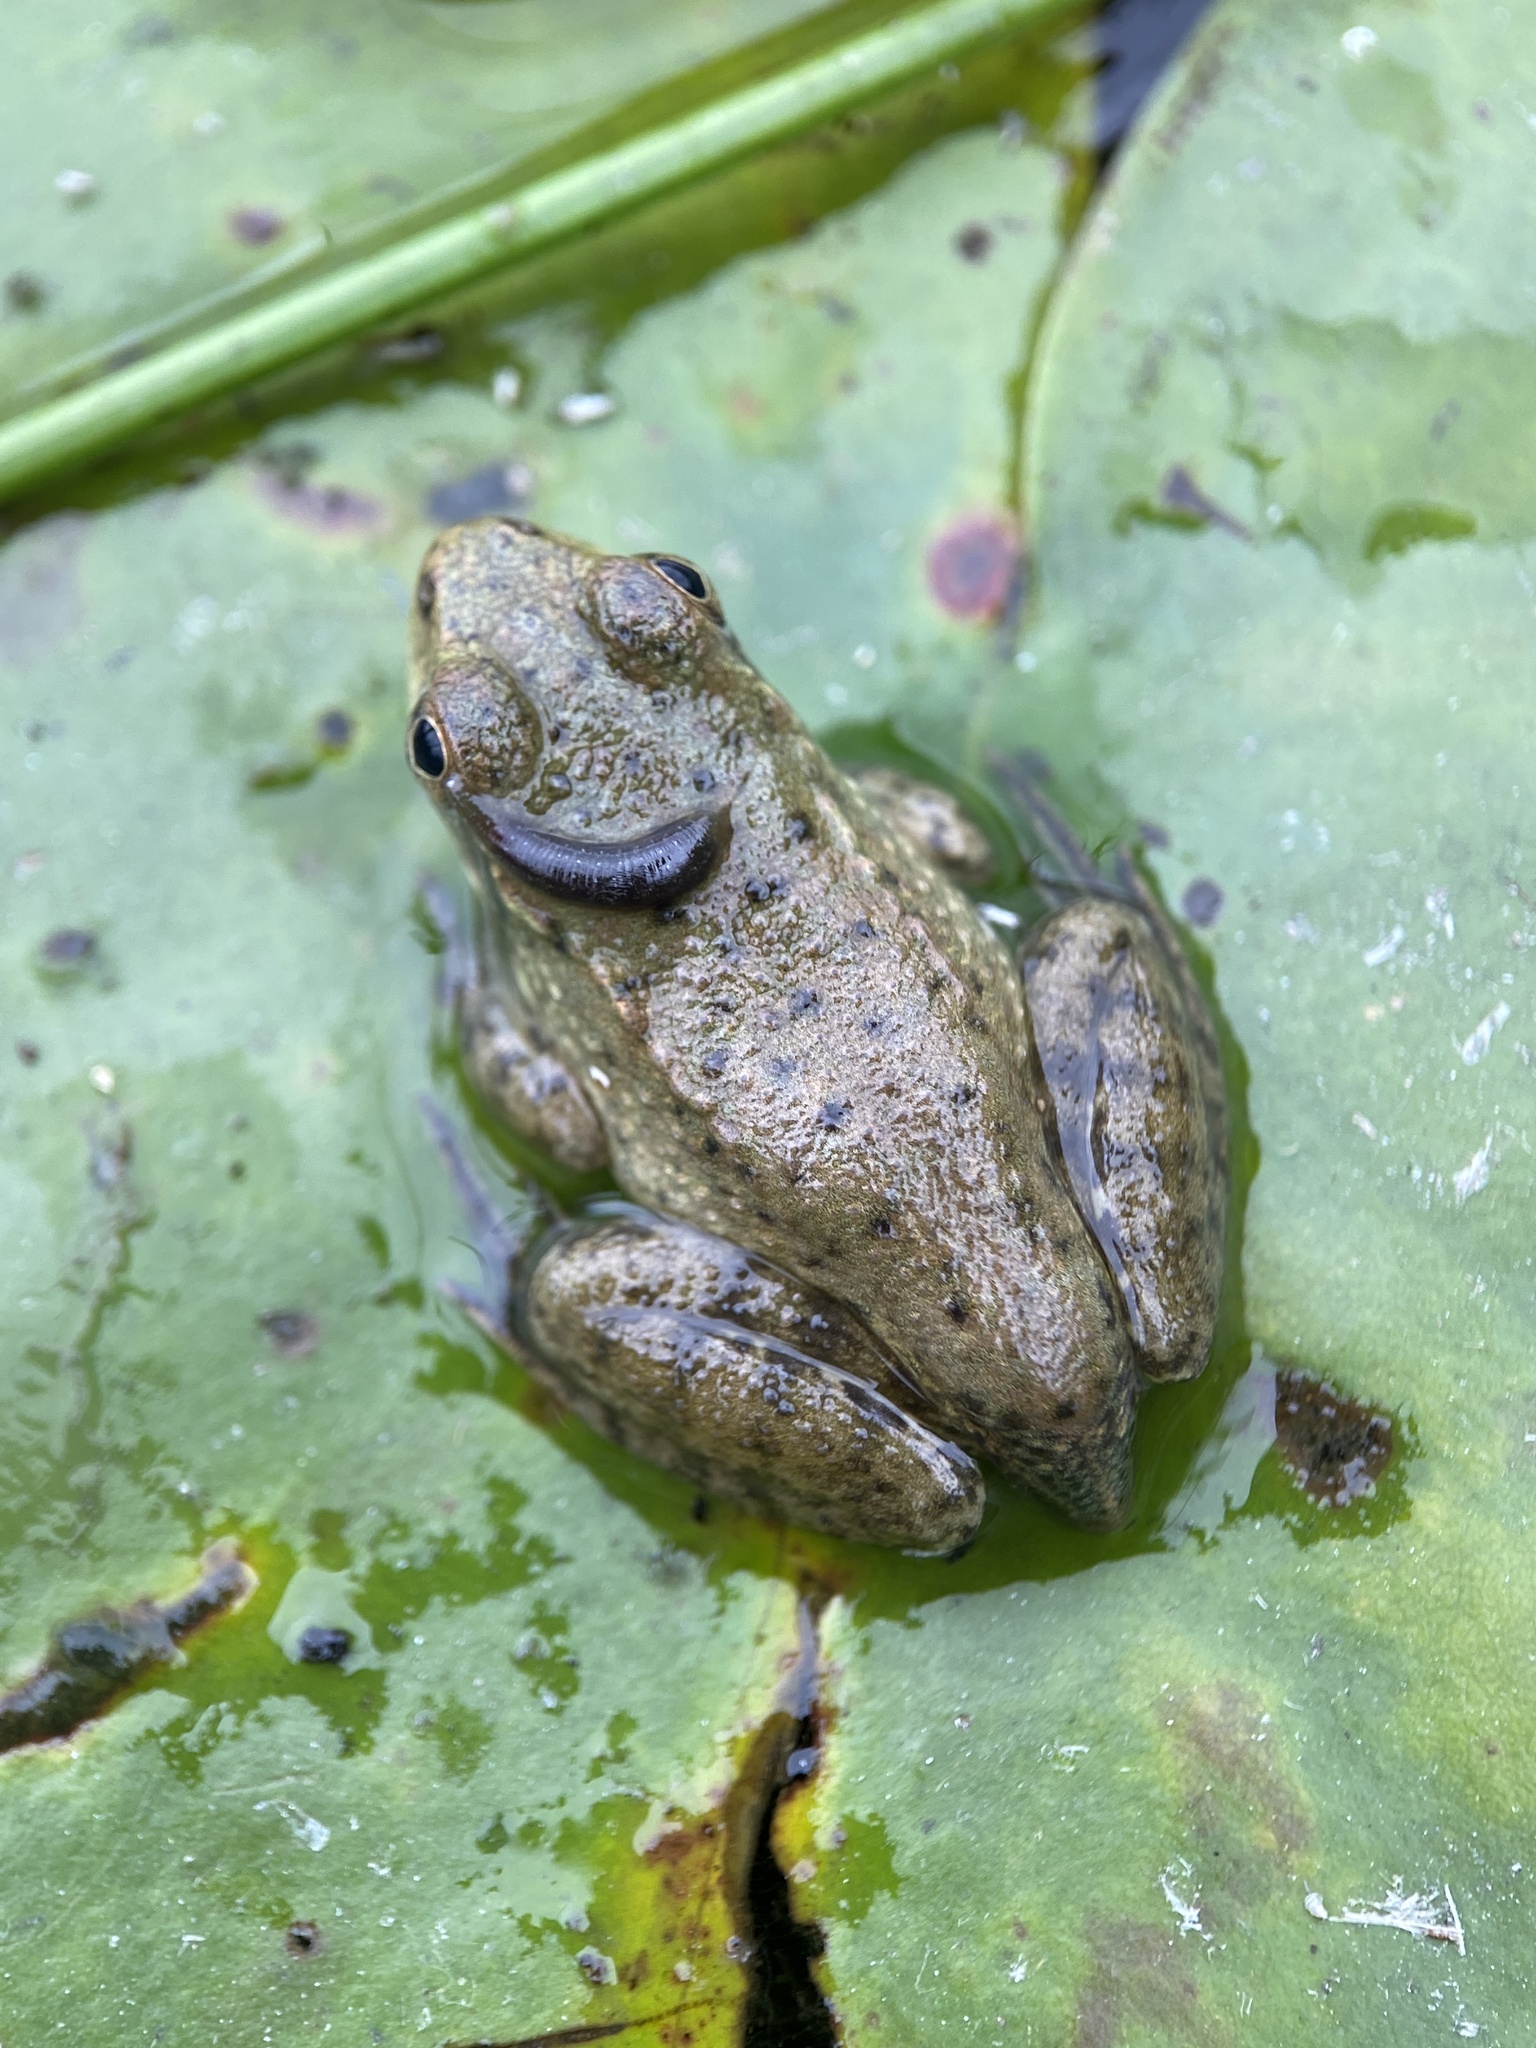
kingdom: Animalia
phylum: Chordata
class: Amphibia
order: Anura
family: Ranidae
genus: Lithobates
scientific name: Lithobates clamitans
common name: Green frog
